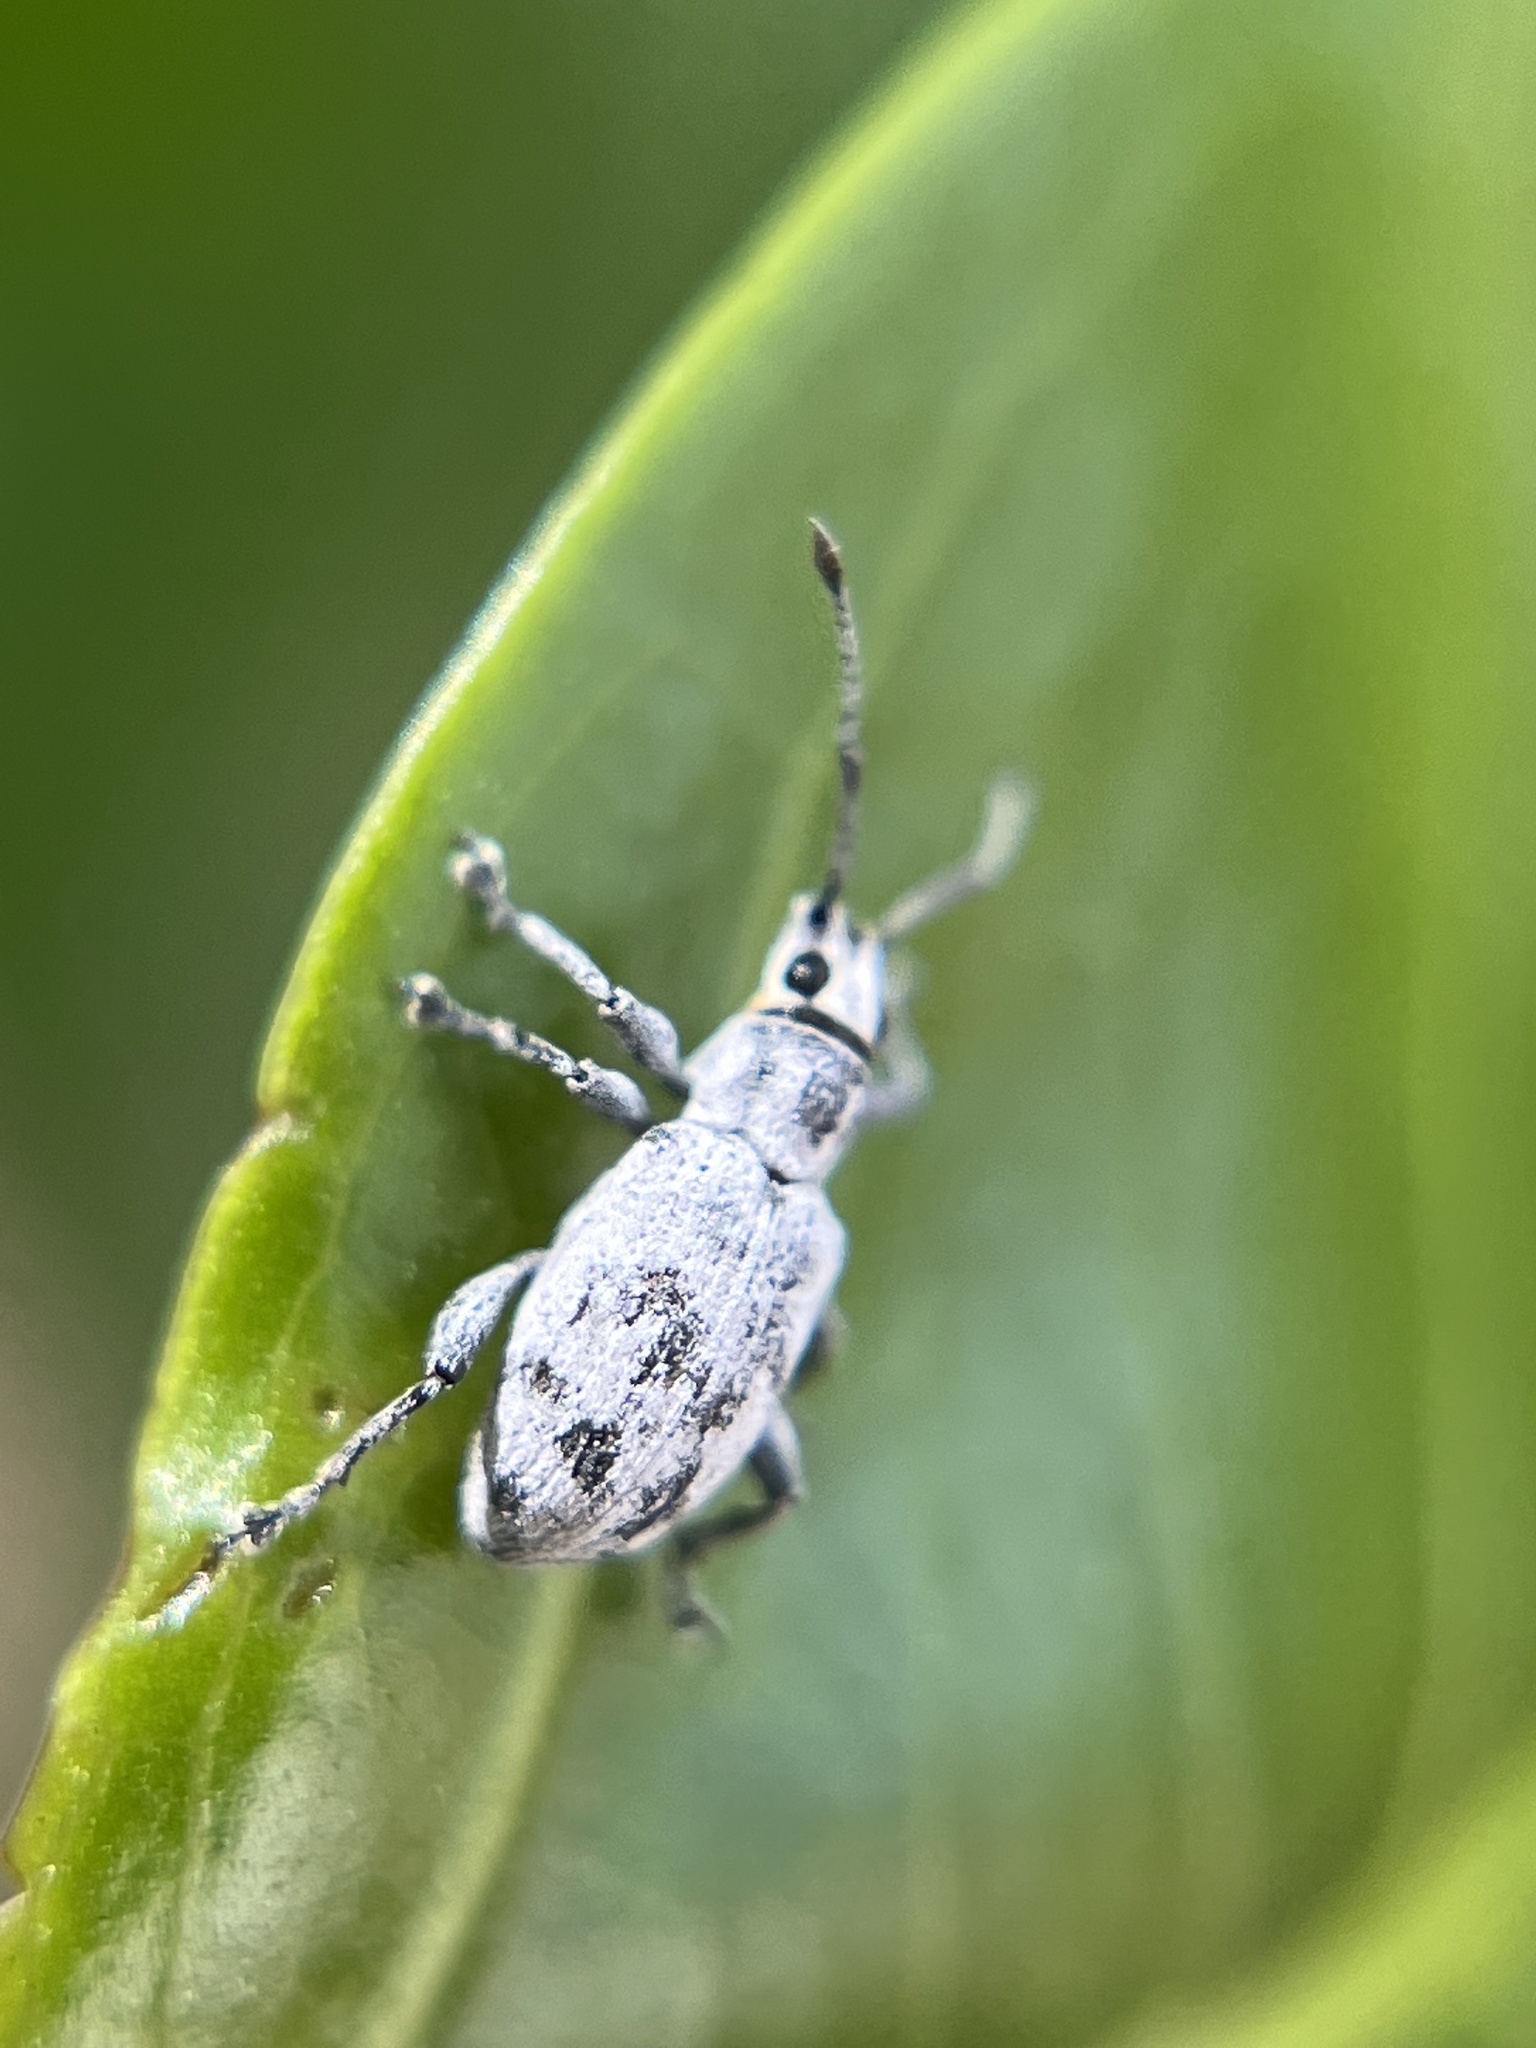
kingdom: Animalia
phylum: Arthropoda
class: Insecta
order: Coleoptera
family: Curculionidae
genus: Myllocerus
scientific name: Myllocerus undecimpustulatus
